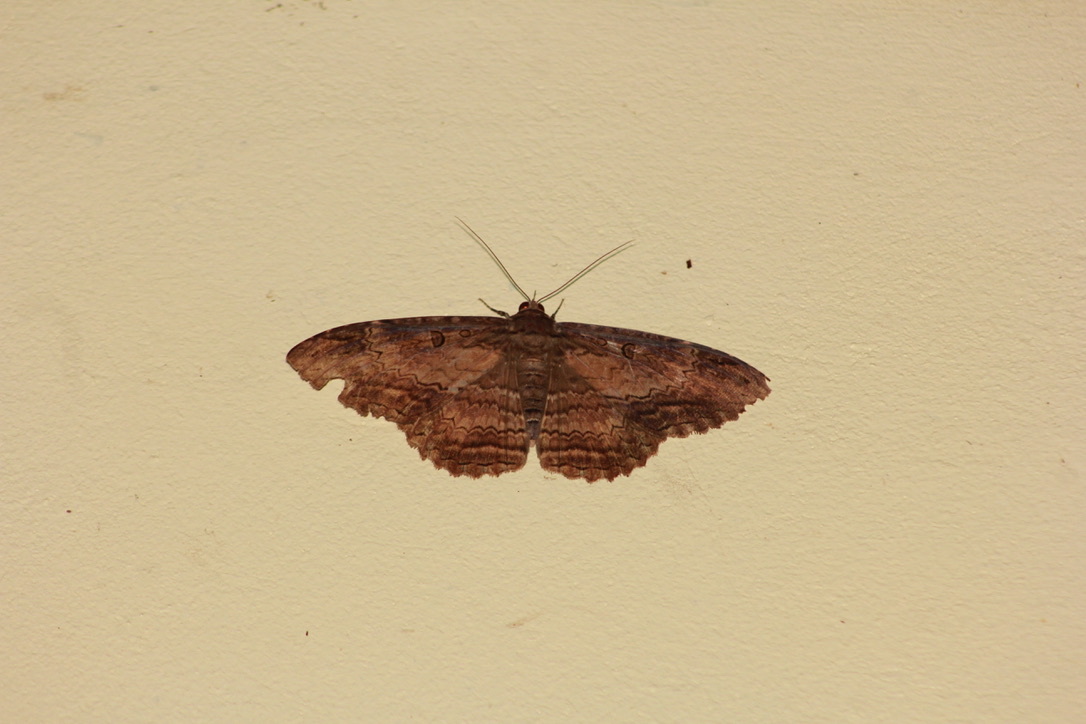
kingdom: Animalia
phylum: Arthropoda
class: Insecta
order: Lepidoptera
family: Erebidae
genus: Feigeria
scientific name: Feigeria scops
